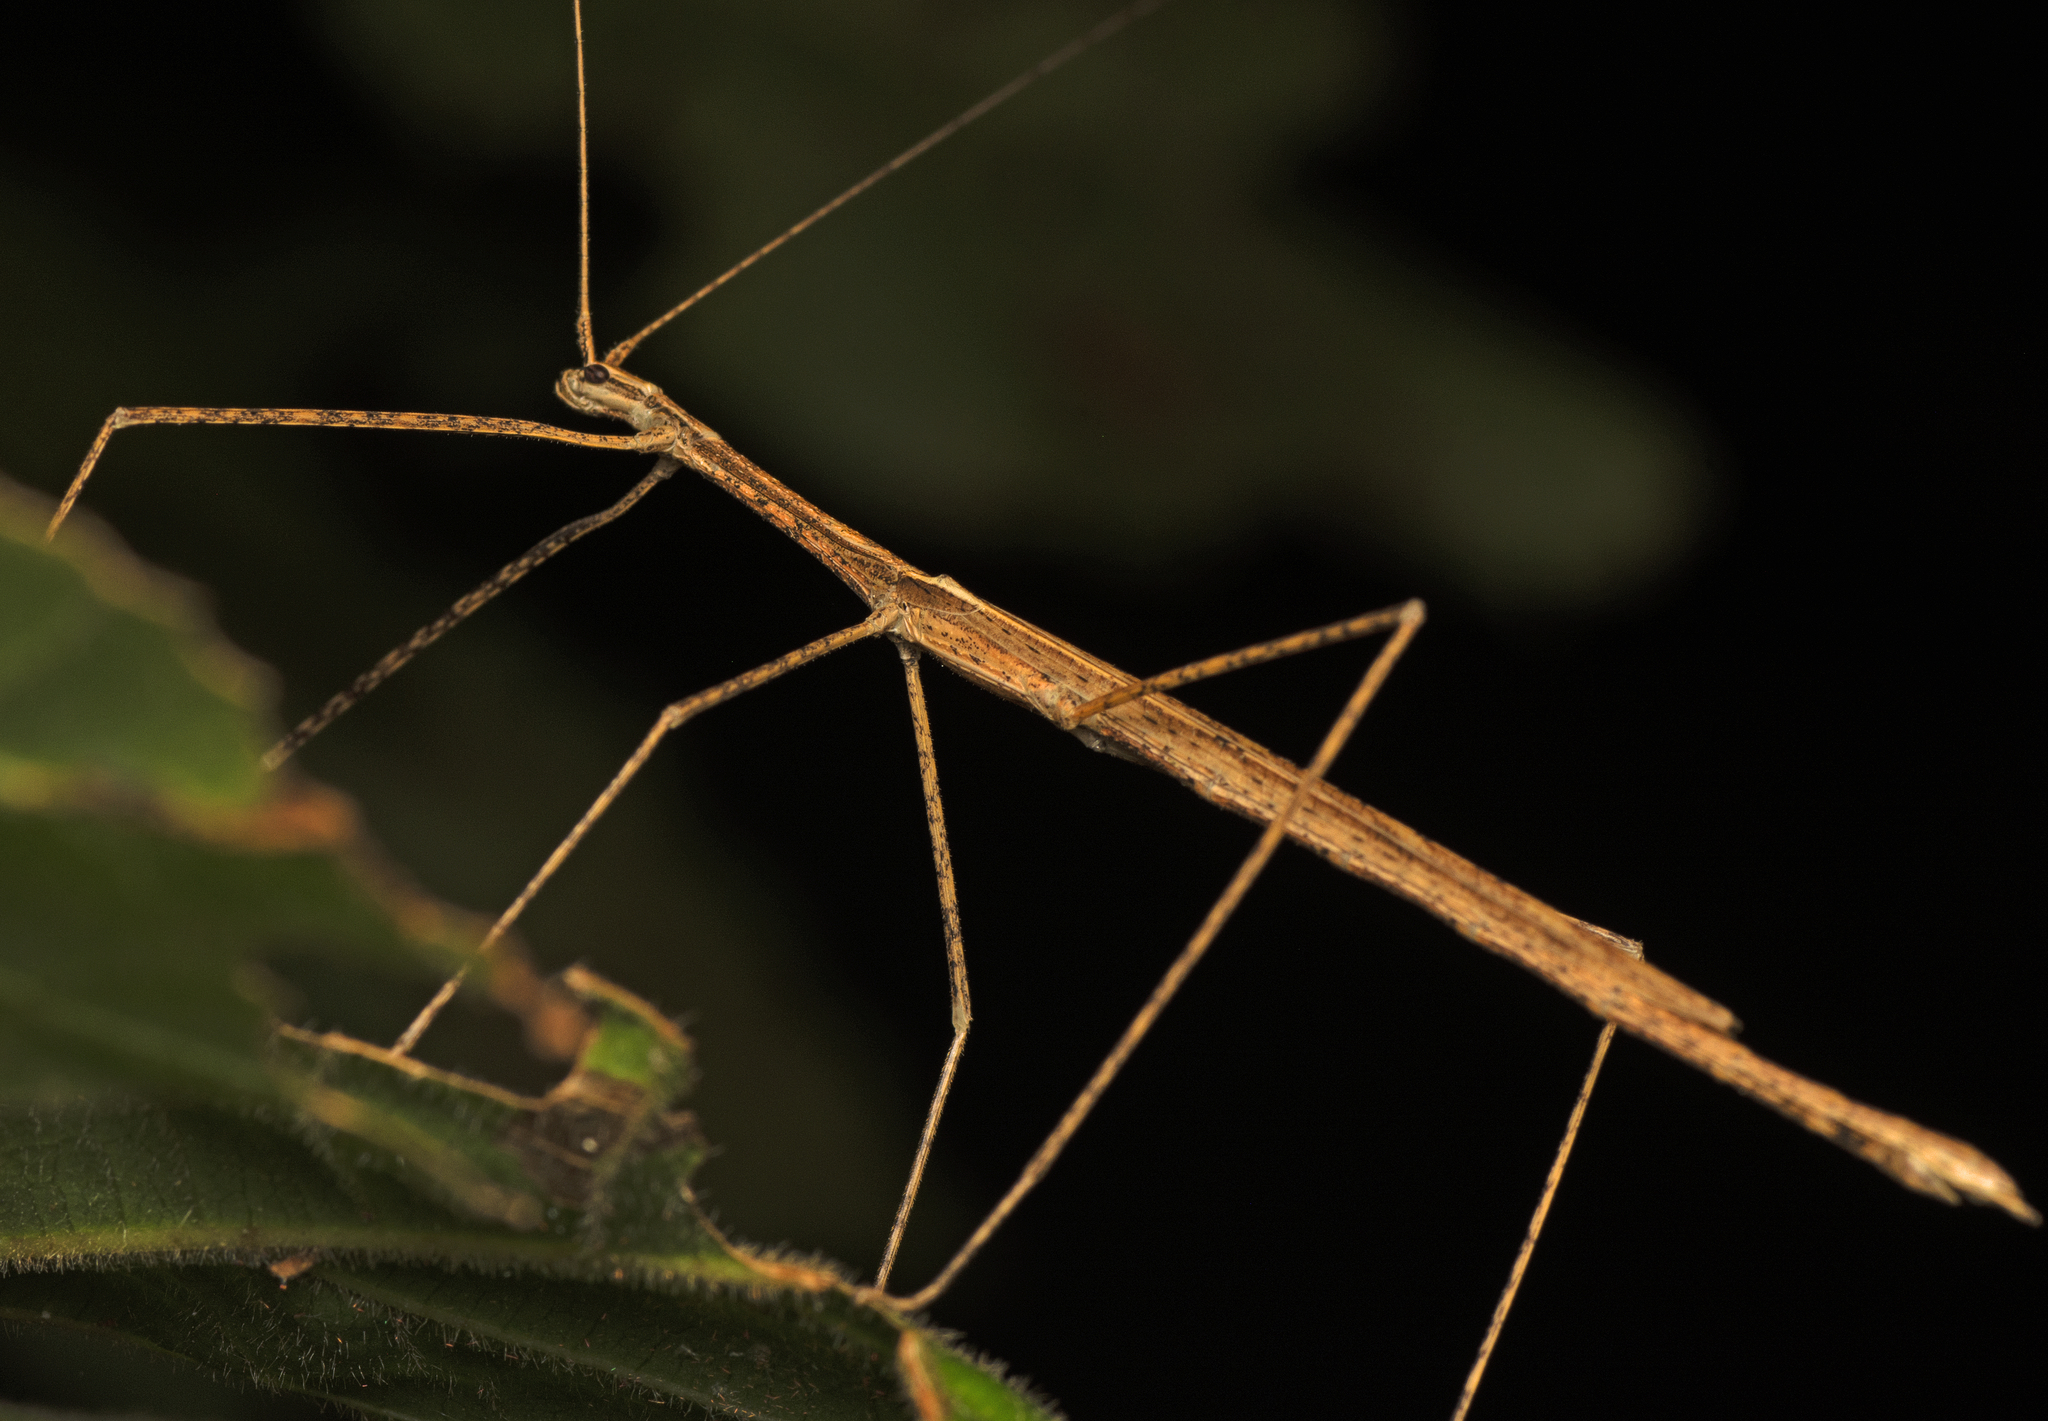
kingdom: Animalia
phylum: Arthropoda
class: Insecta
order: Phasmida
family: Lonchodidae
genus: Sipyloidea
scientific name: Sipyloidea larryi
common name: Hurricane larry stick-insect
